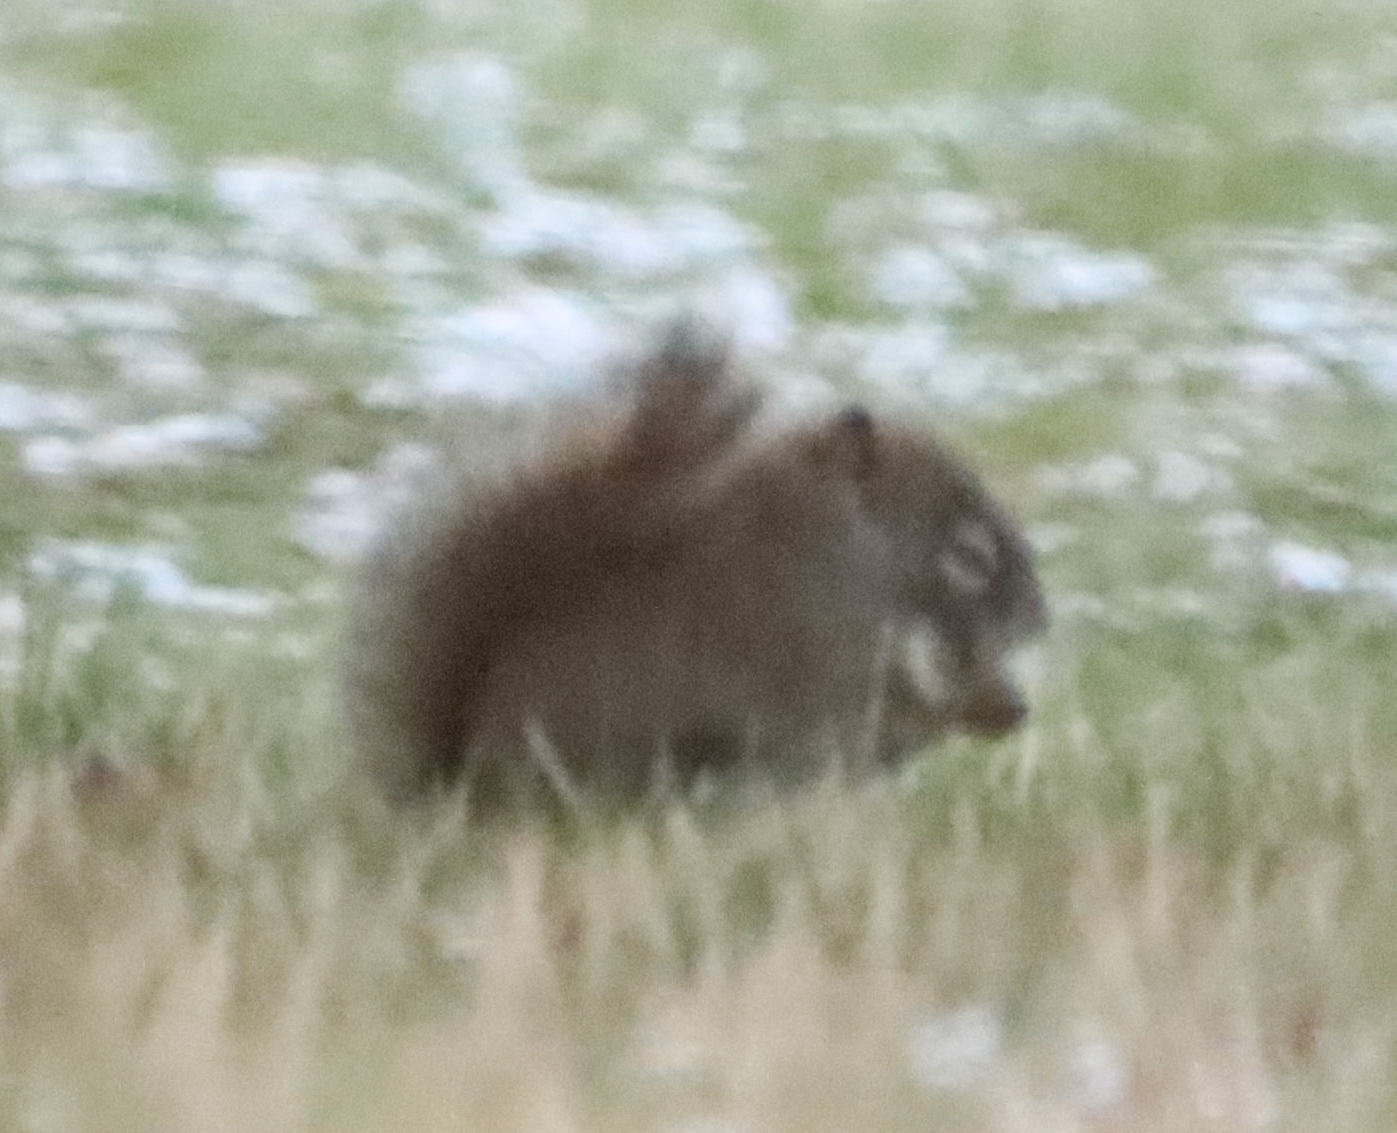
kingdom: Animalia
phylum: Chordata
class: Mammalia
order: Rodentia
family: Sciuridae
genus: Tamiasciurus
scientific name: Tamiasciurus hudsonicus
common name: Red squirrel
